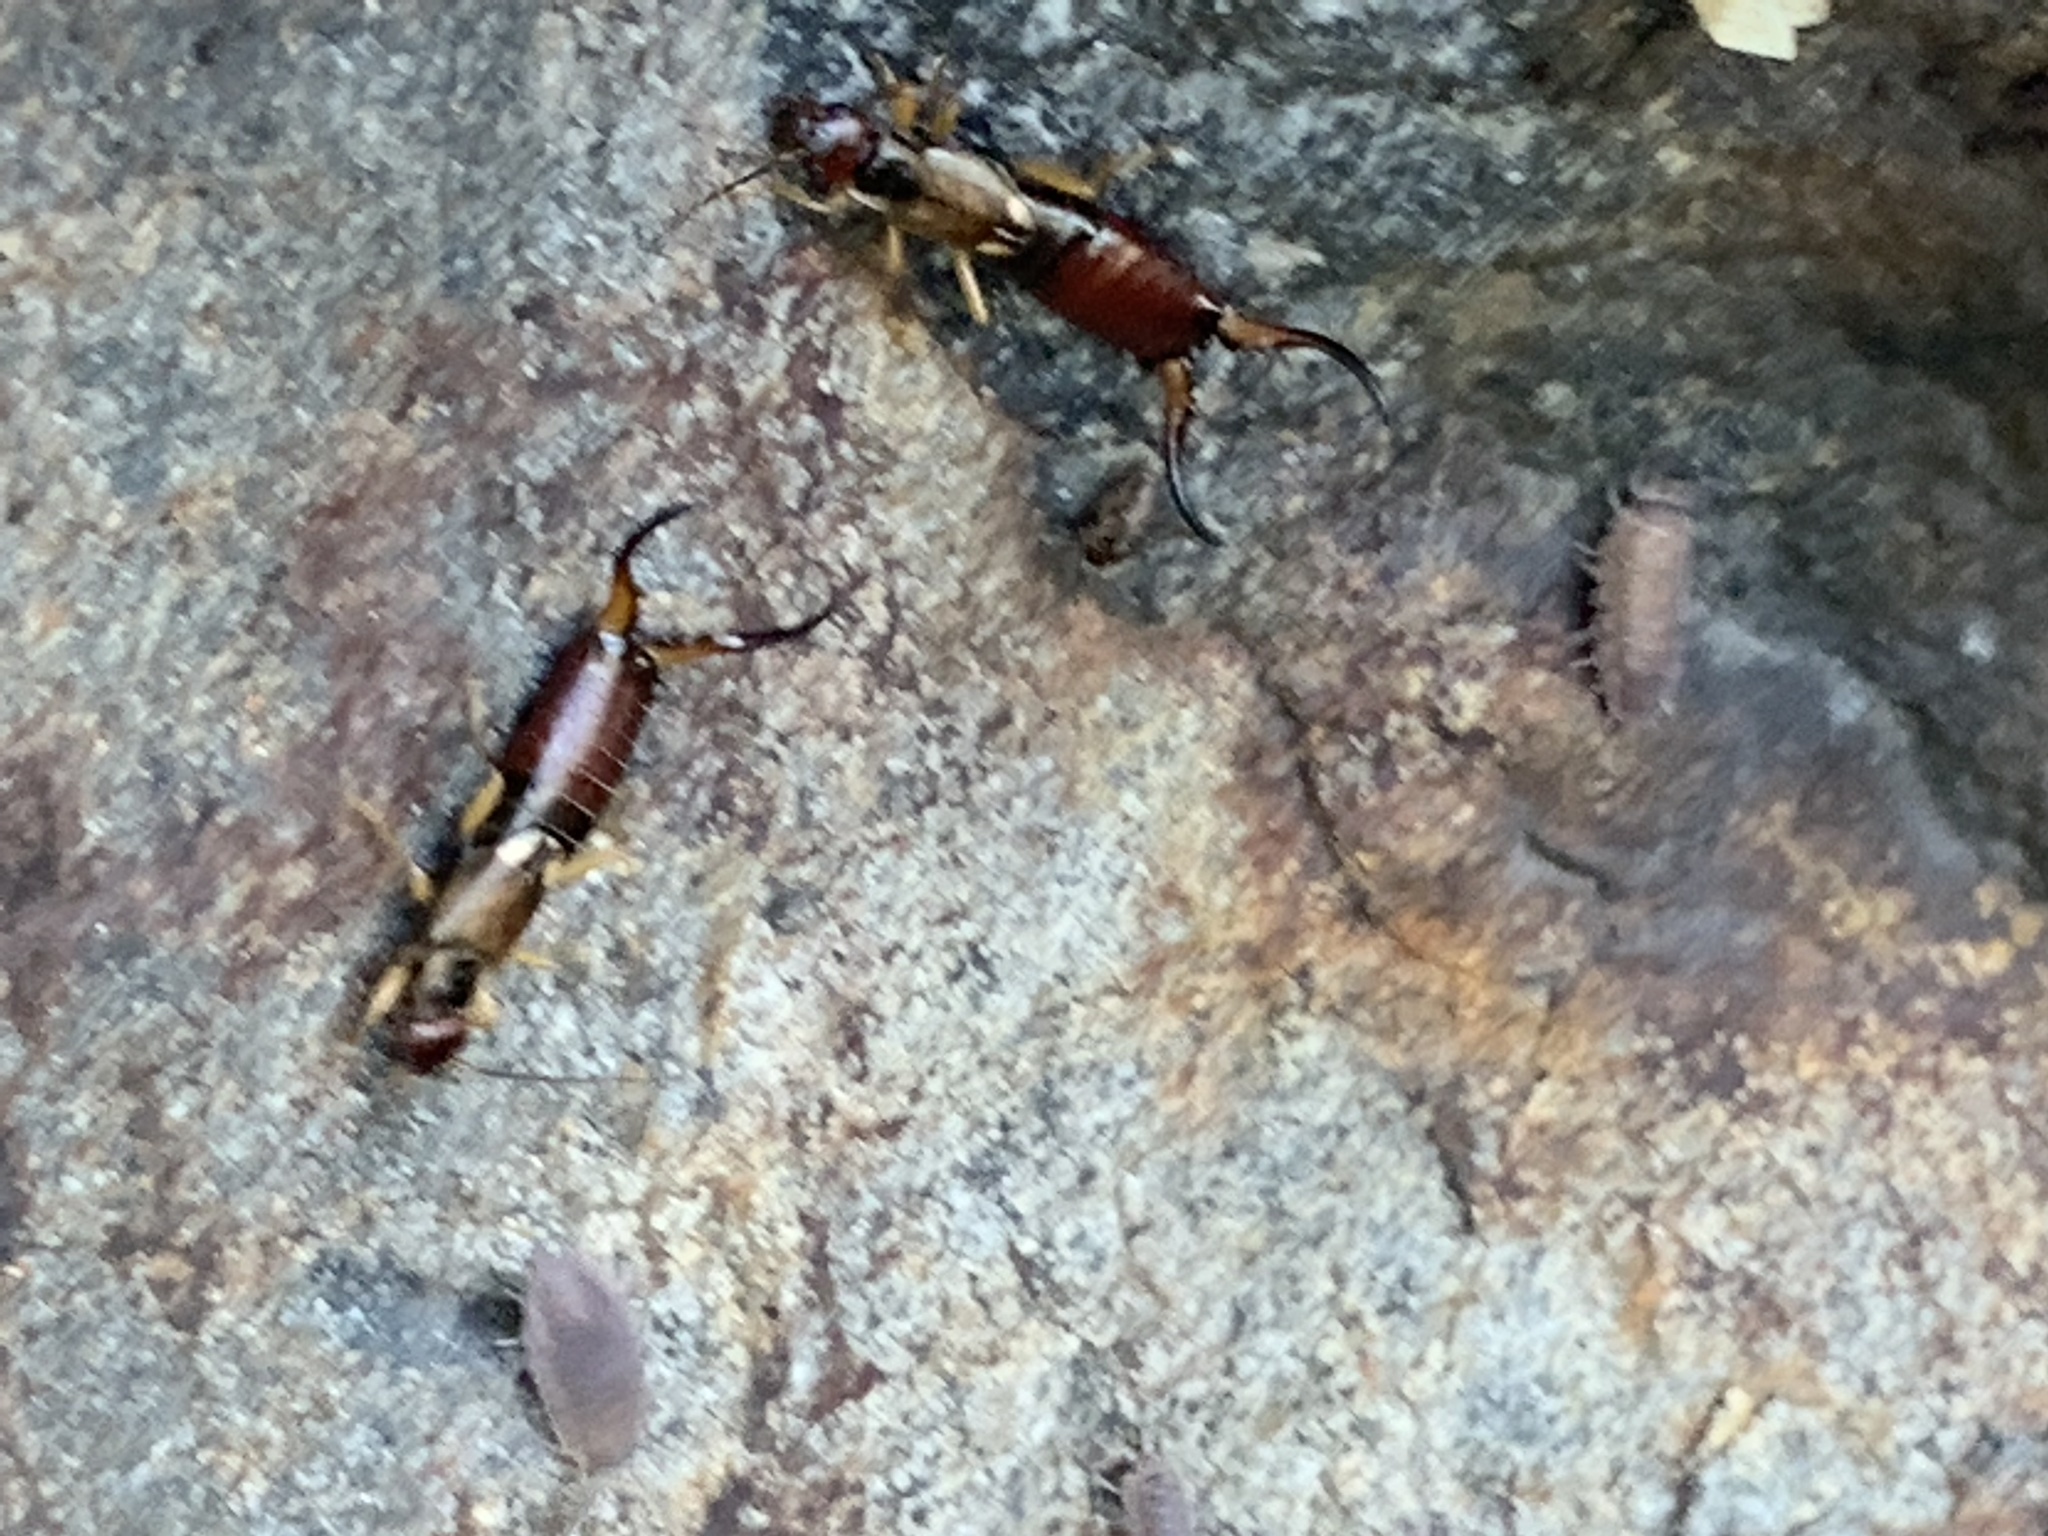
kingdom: Animalia
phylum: Arthropoda
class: Insecta
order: Dermaptera
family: Forficulidae
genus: Forficula
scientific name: Forficula
